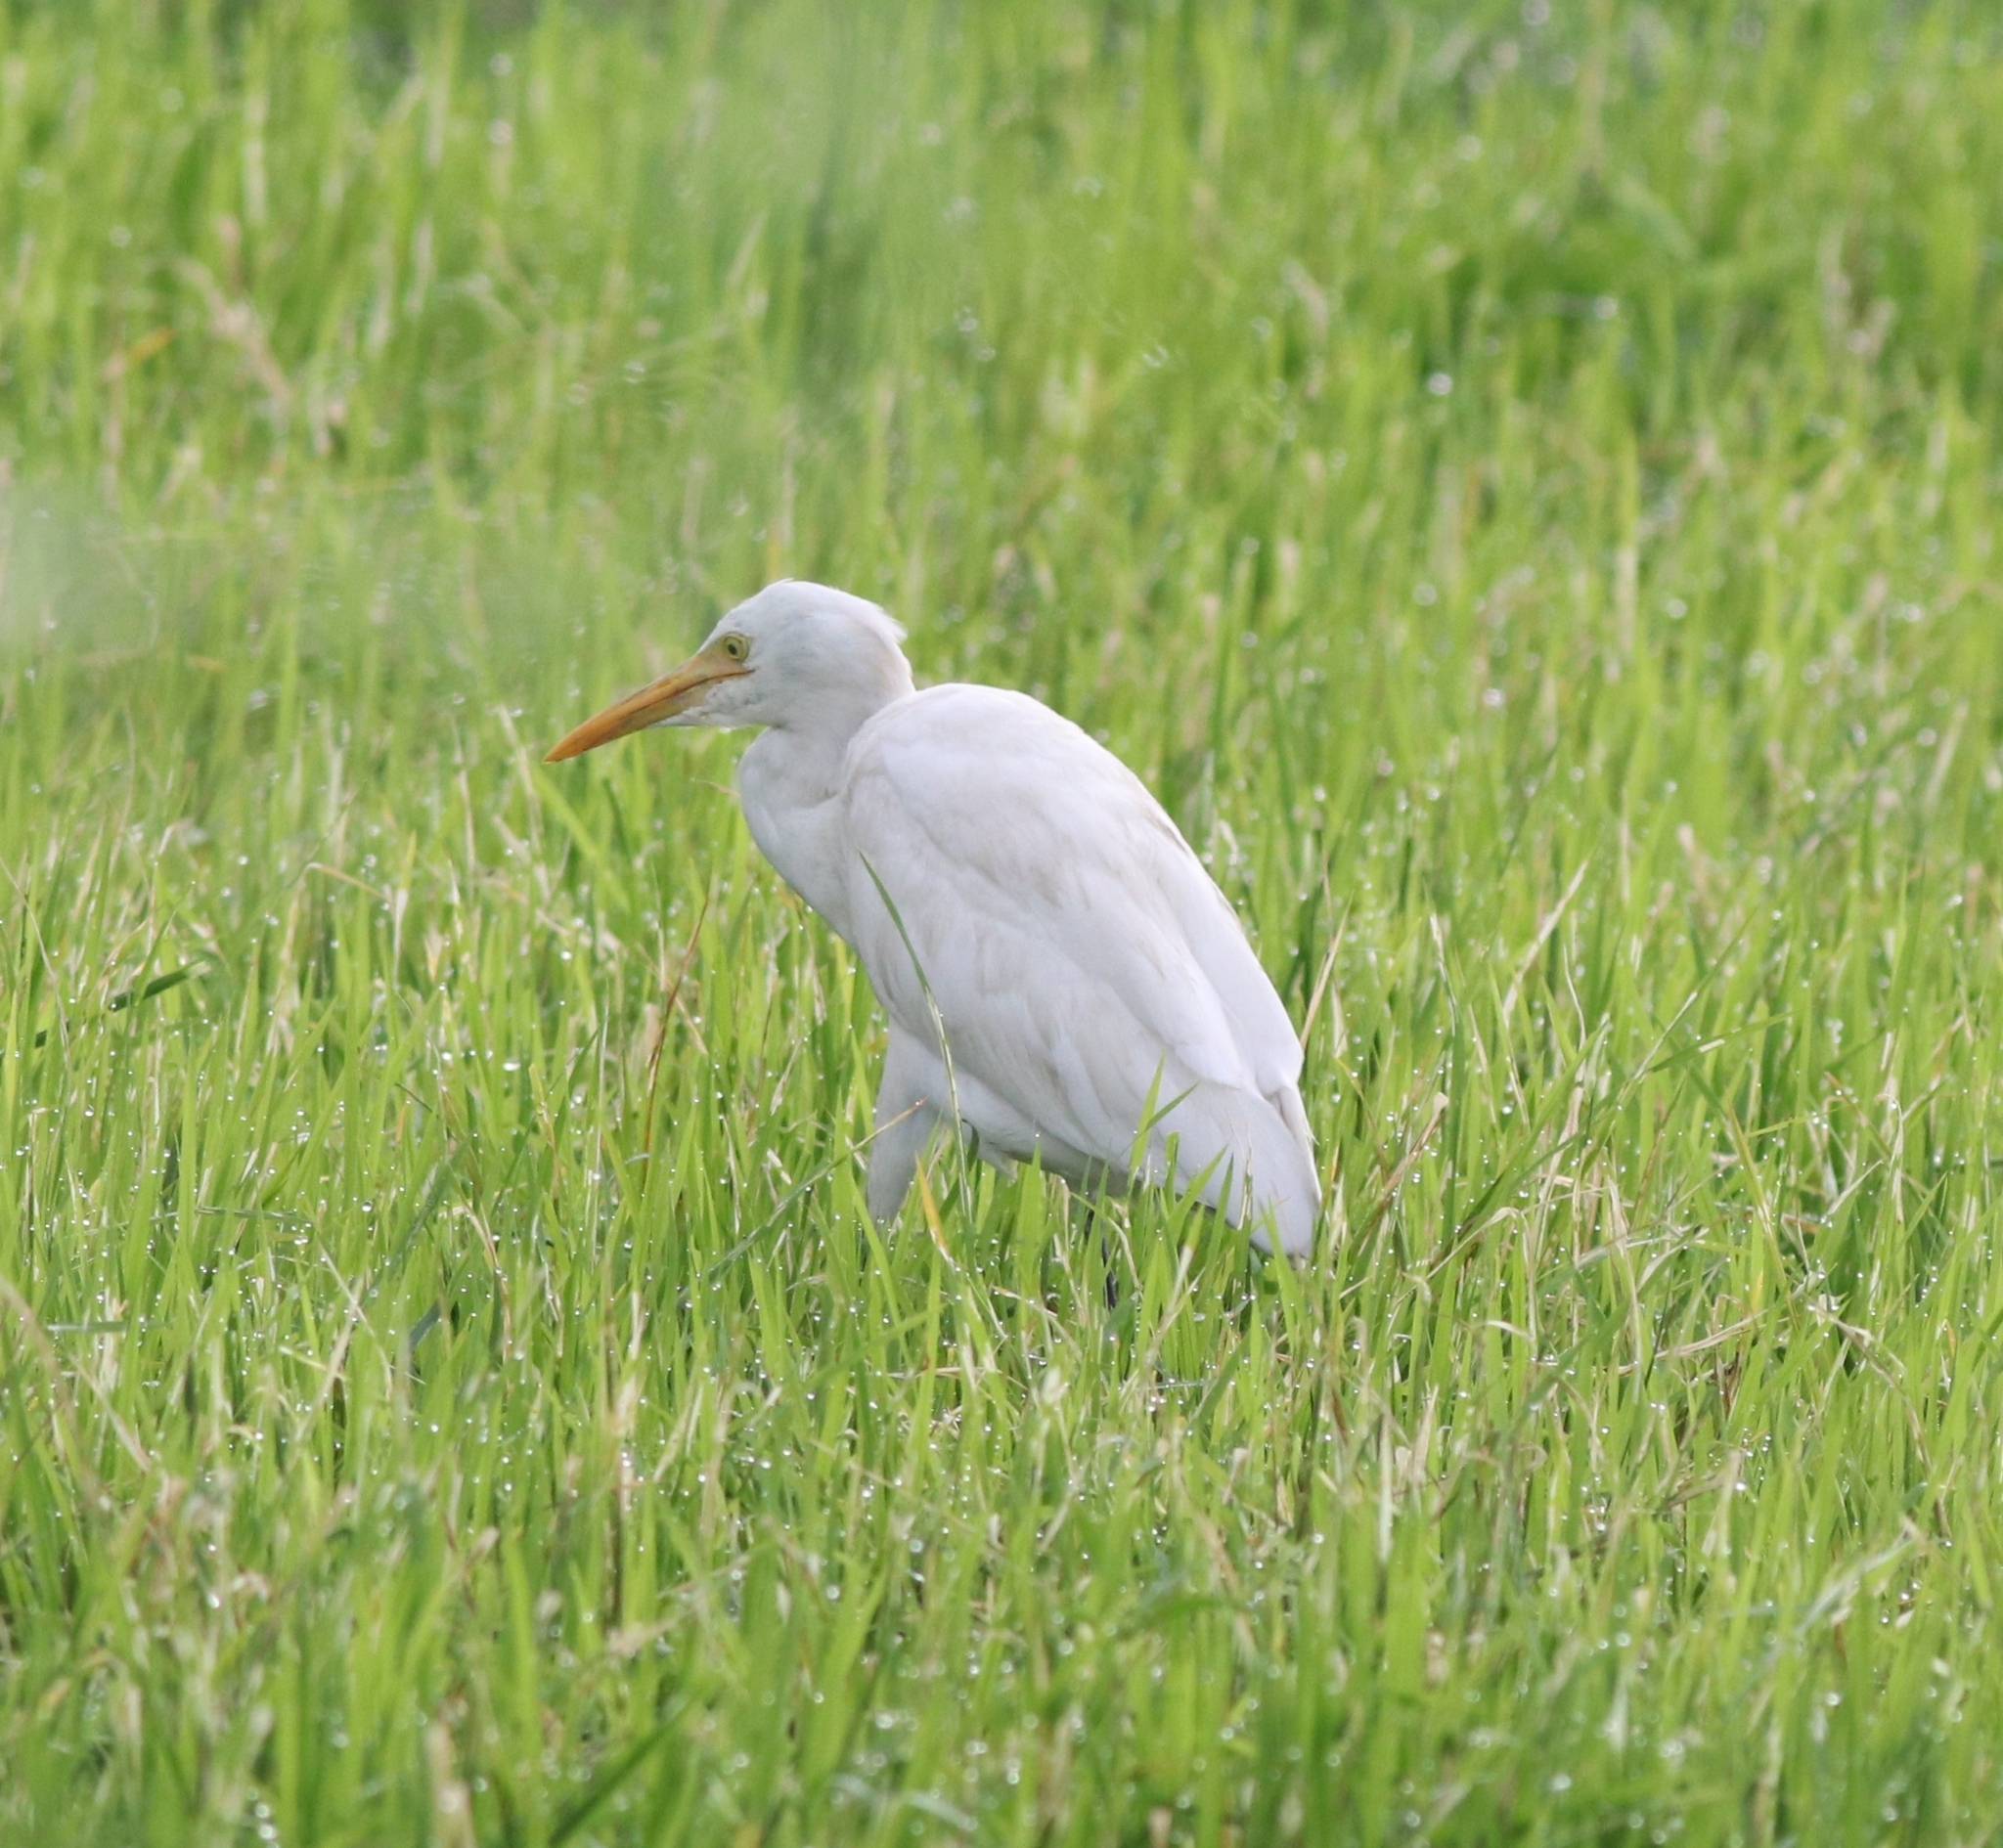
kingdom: Animalia
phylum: Chordata
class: Aves
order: Pelecaniformes
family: Ardeidae
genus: Bubulcus
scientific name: Bubulcus coromandus
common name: Eastern cattle egret
